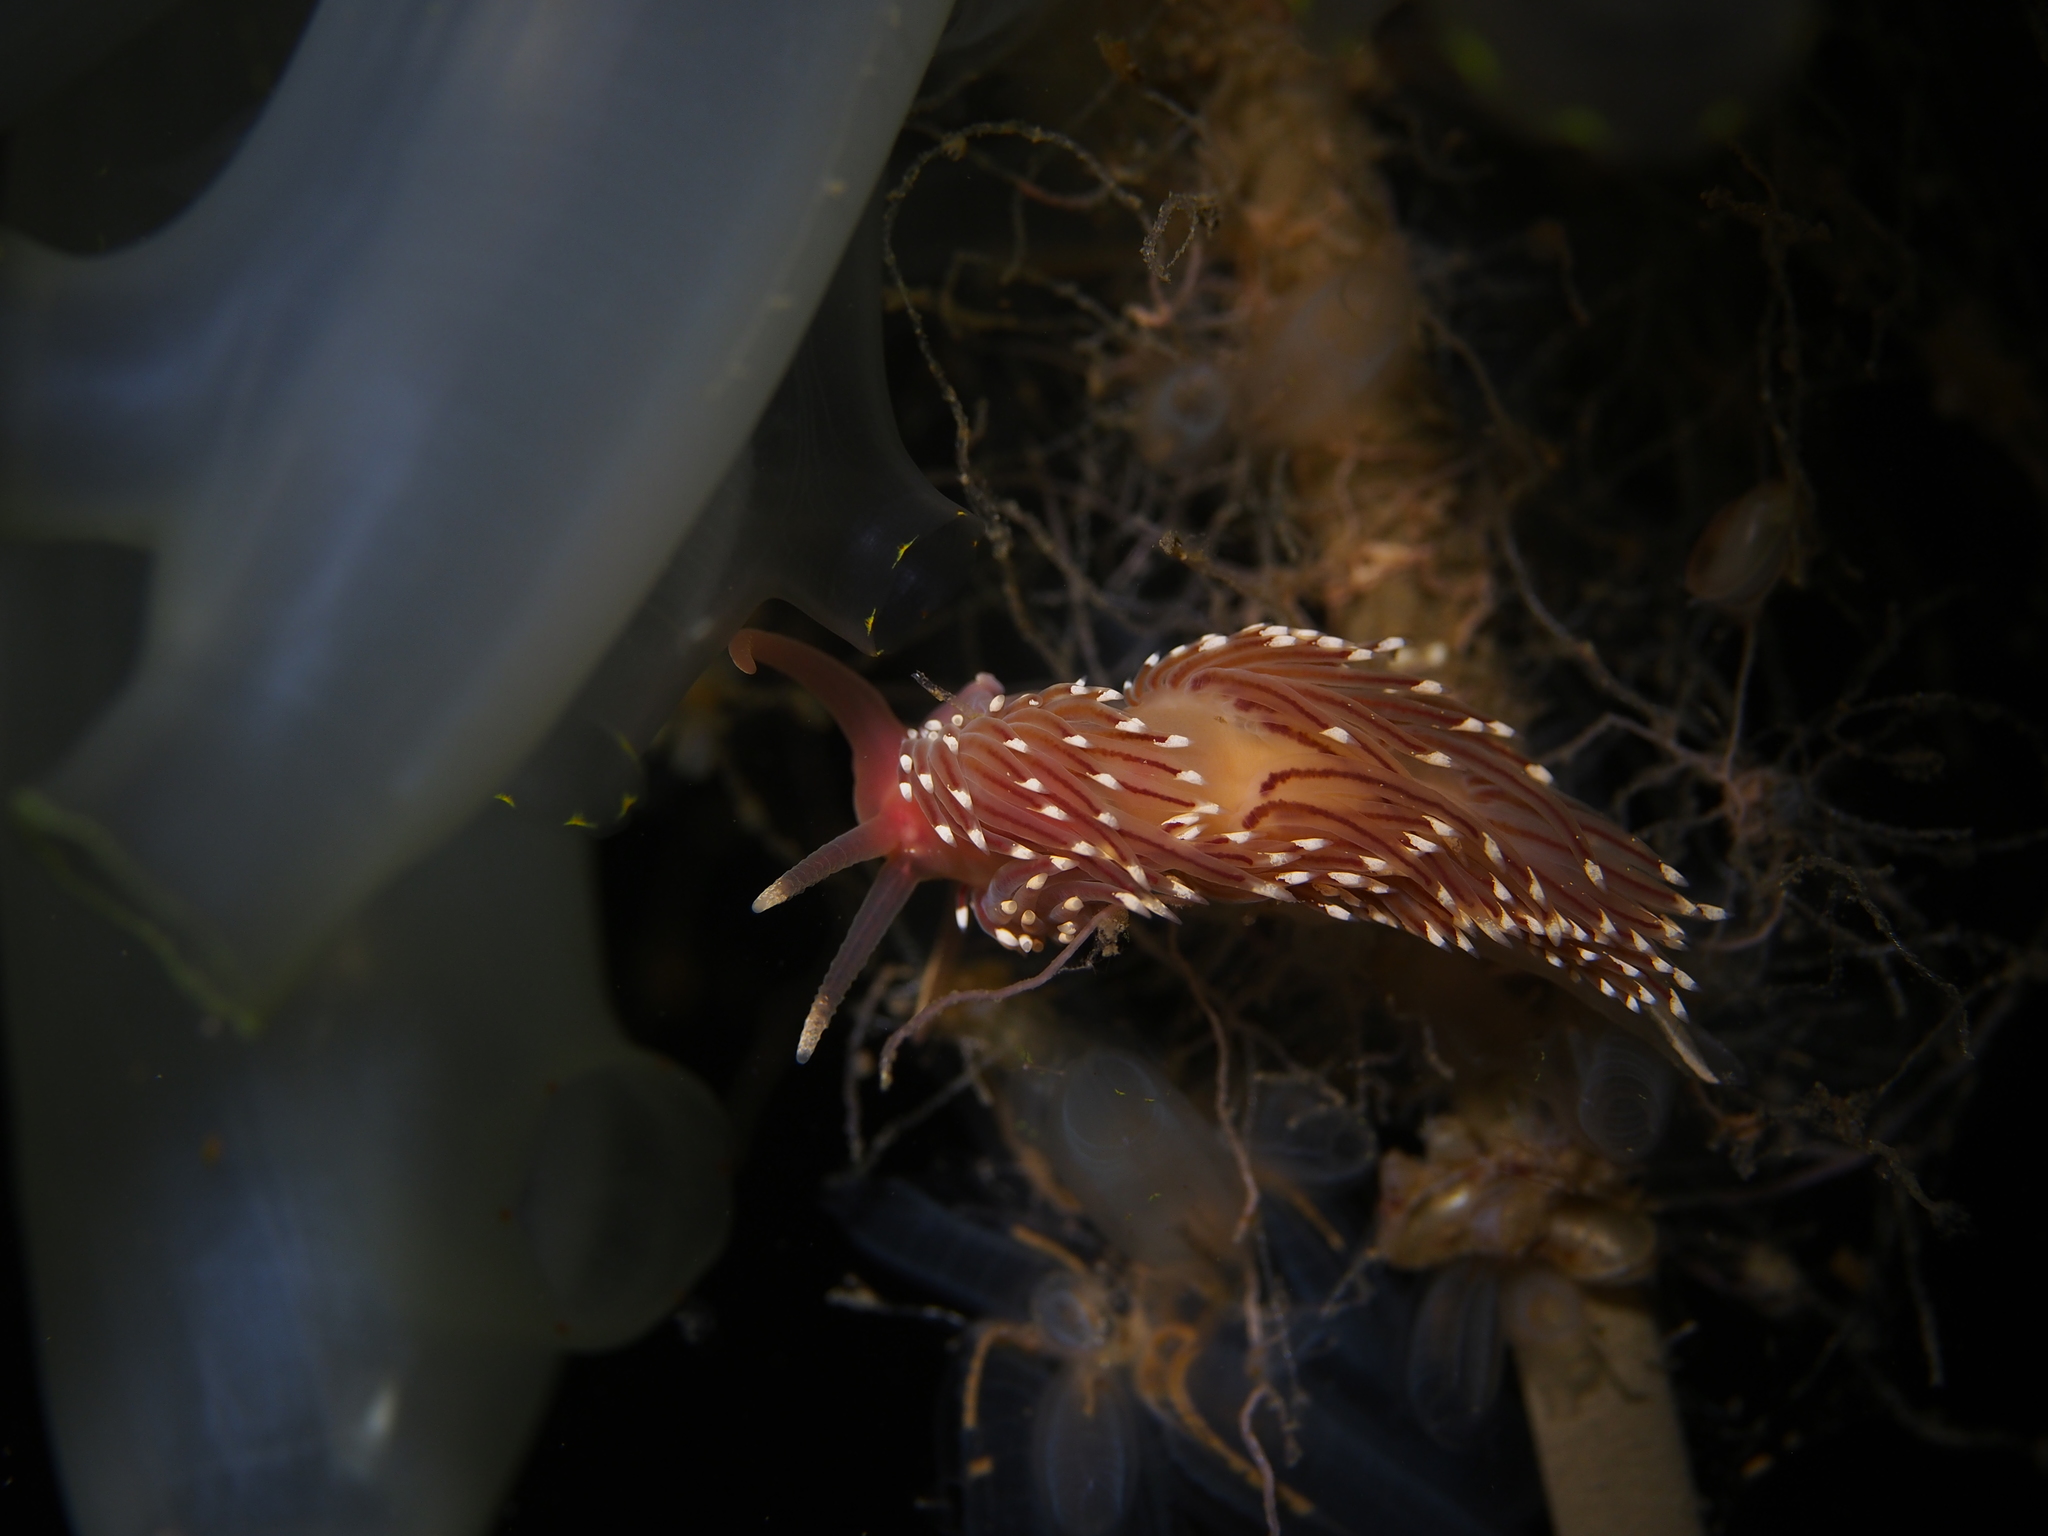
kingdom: Animalia
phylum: Mollusca
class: Gastropoda
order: Nudibranchia
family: Facelinidae
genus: Facelina
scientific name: Facelina bostoniensis
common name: Boston facelina
